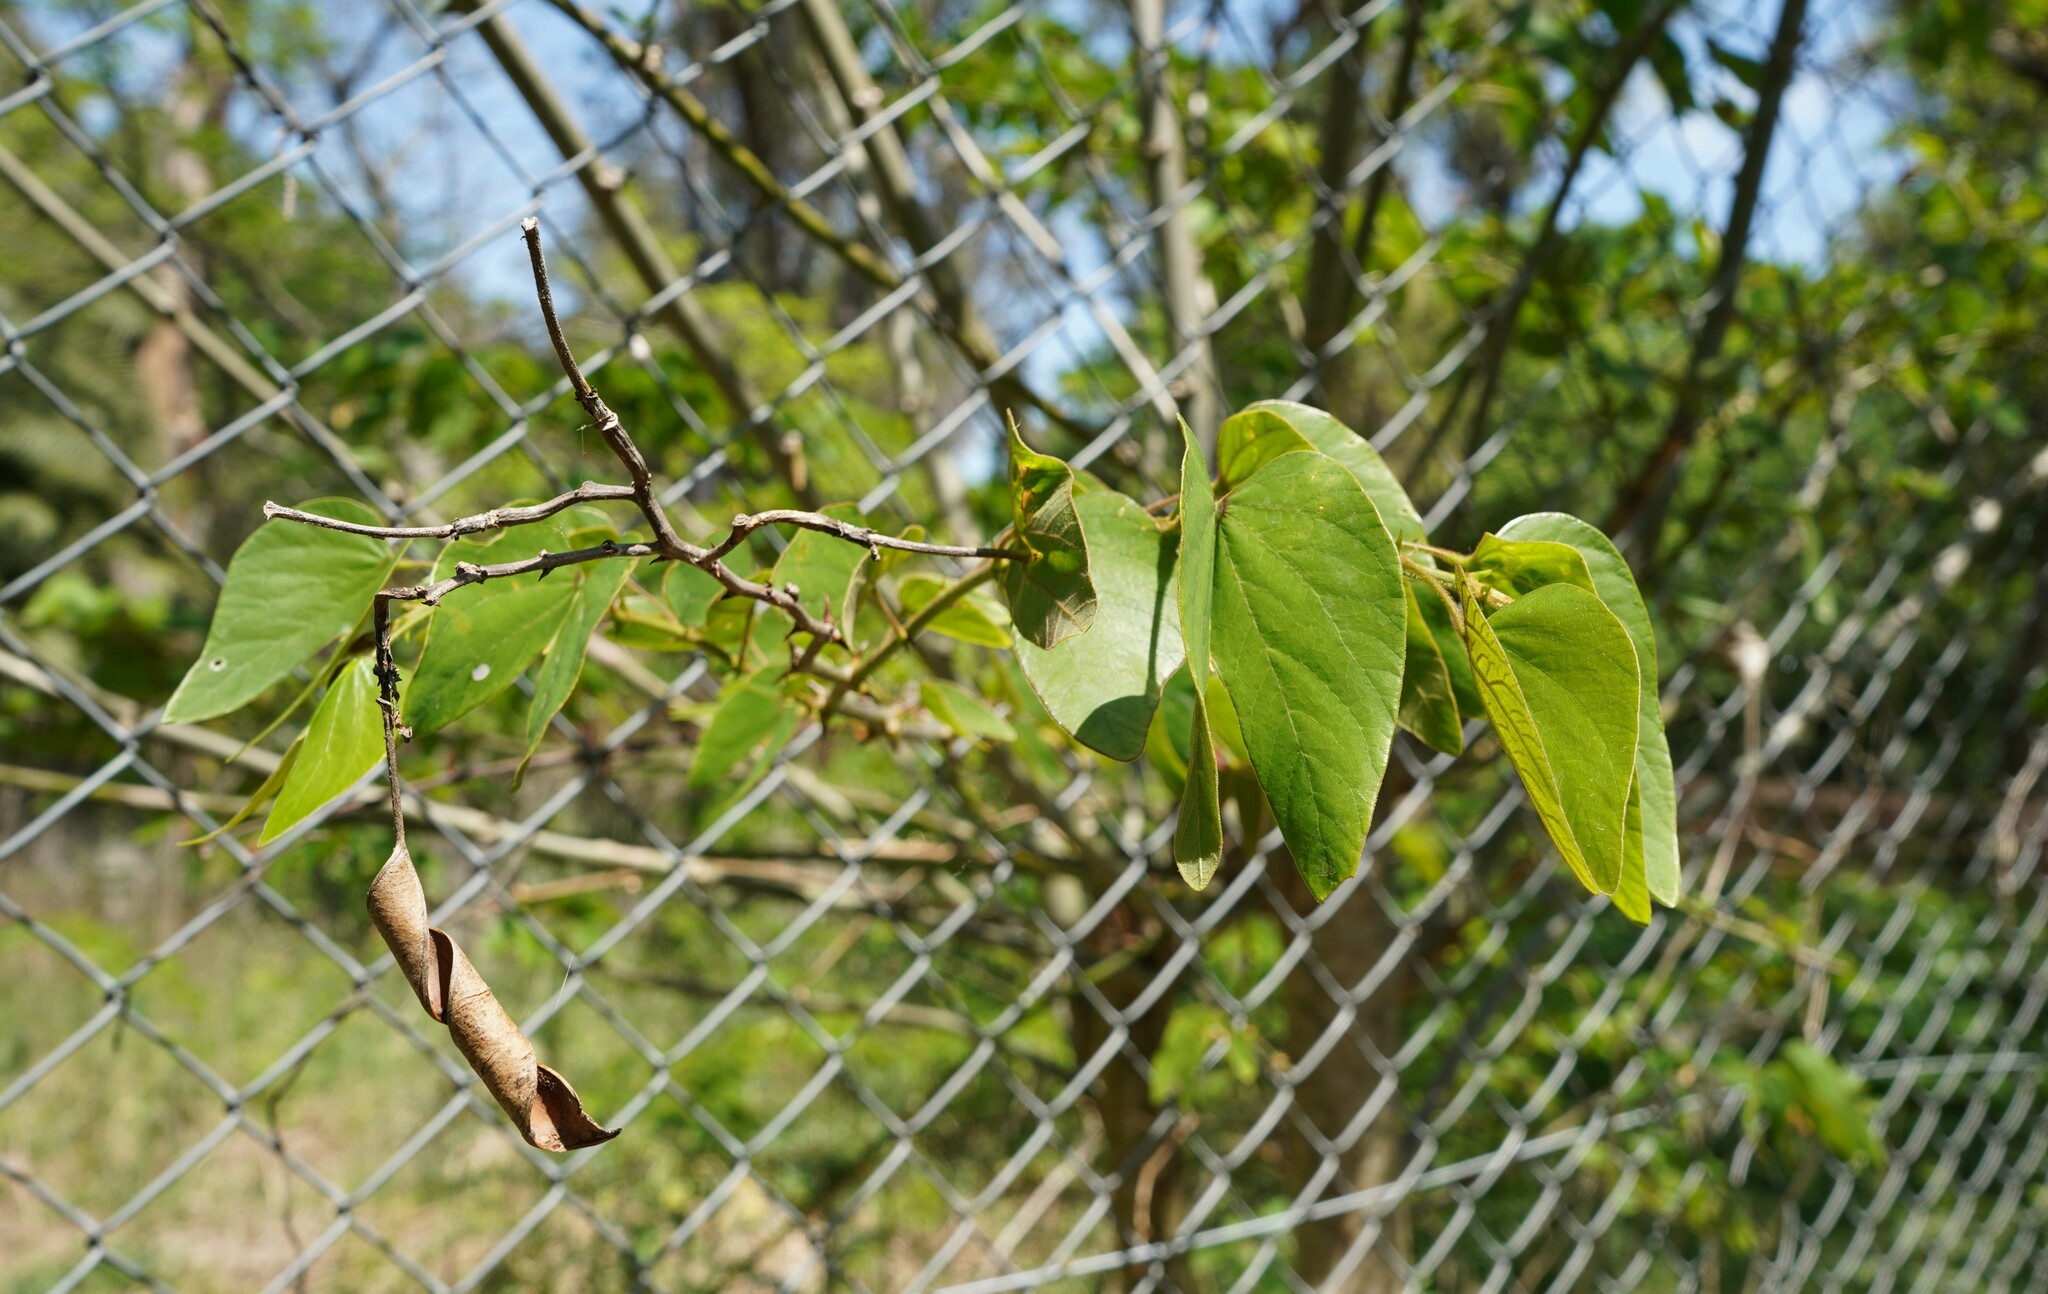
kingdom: Plantae
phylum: Tracheophyta
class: Magnoliopsida
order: Fabales
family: Fabaceae
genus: Bauhinia
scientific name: Bauhinia forficata
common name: Orchid tree
